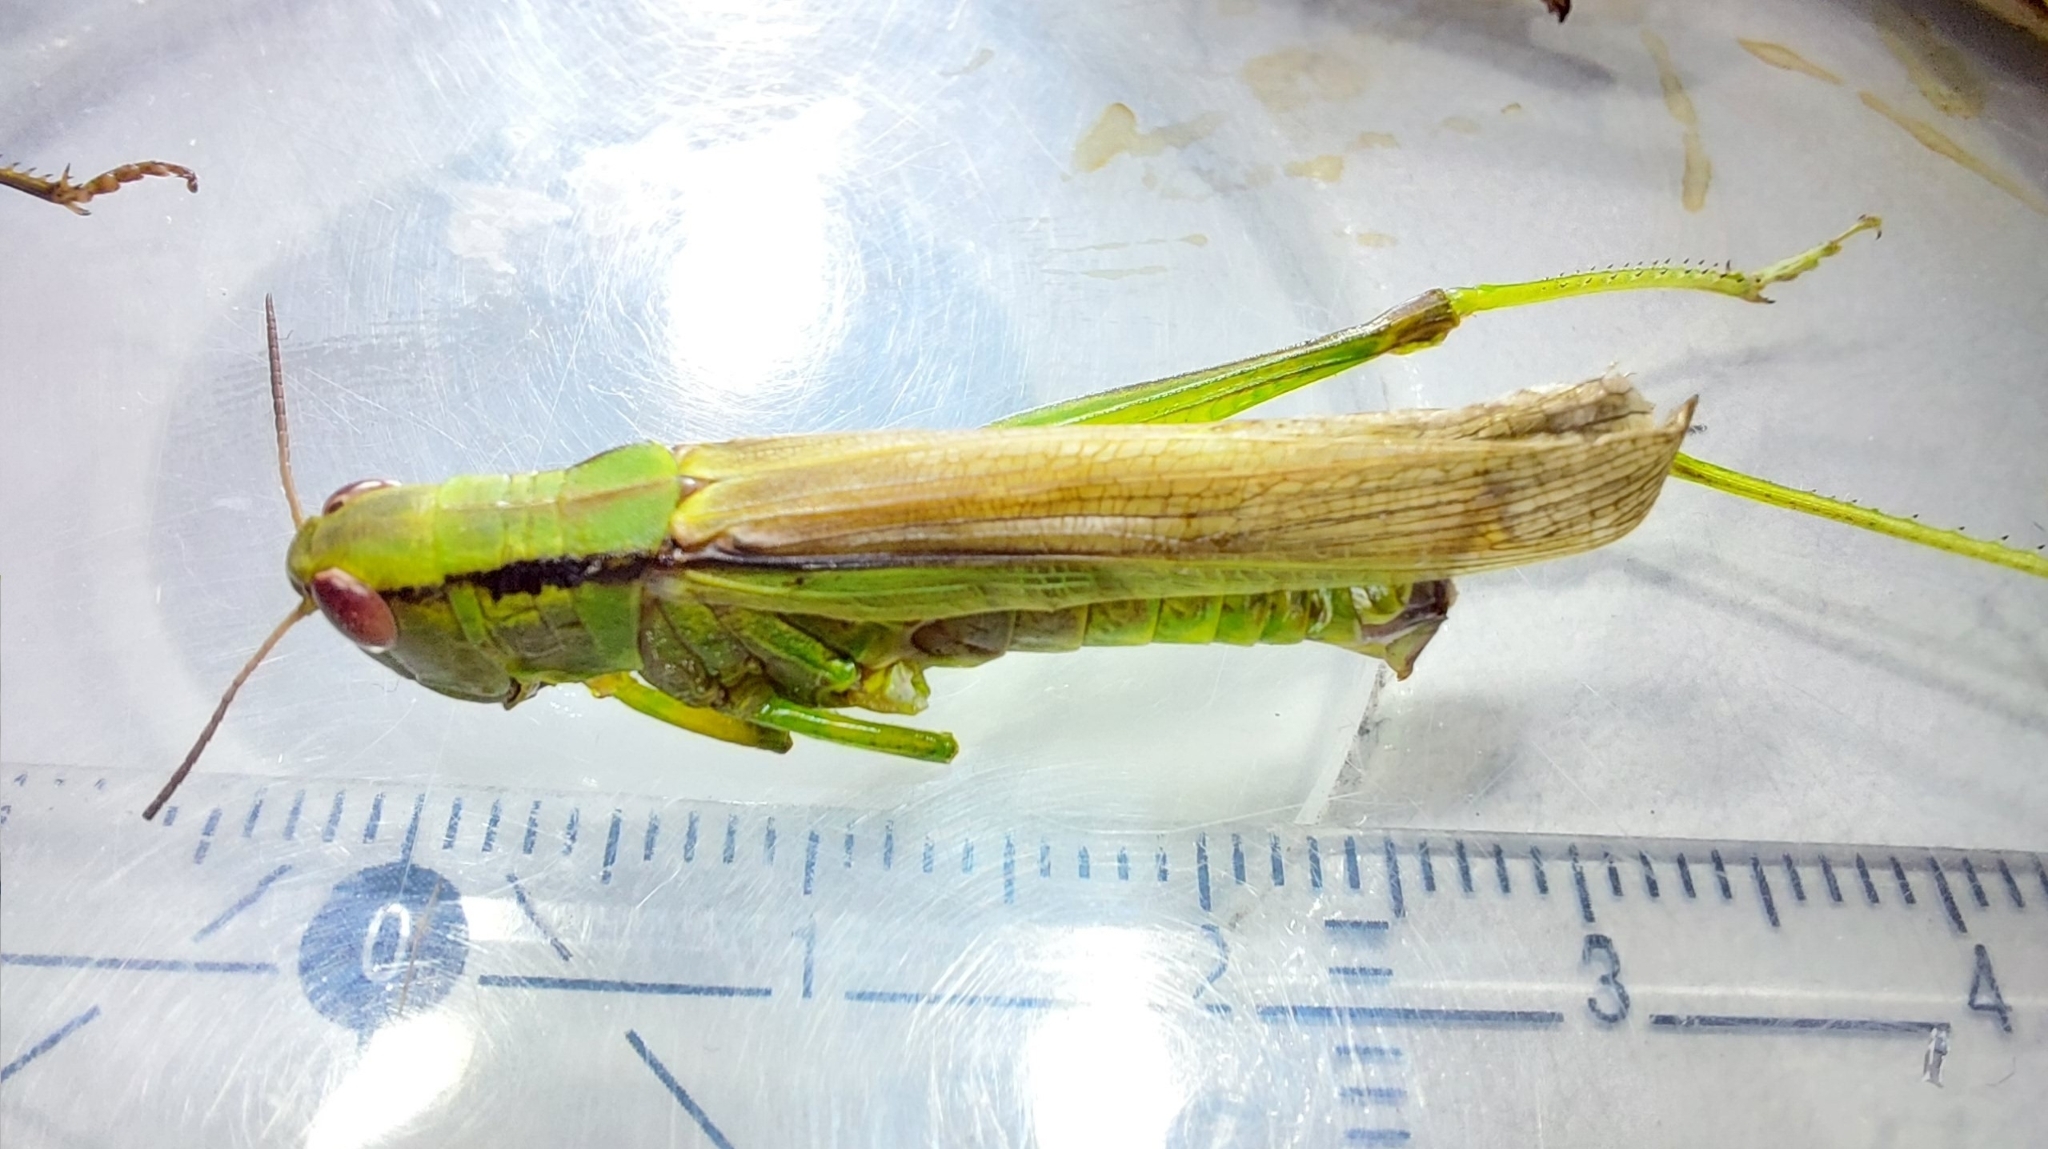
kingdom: Animalia
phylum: Arthropoda
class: Insecta
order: Orthoptera
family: Acrididae
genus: Mecostethus
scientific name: Mecostethus parapleurus
